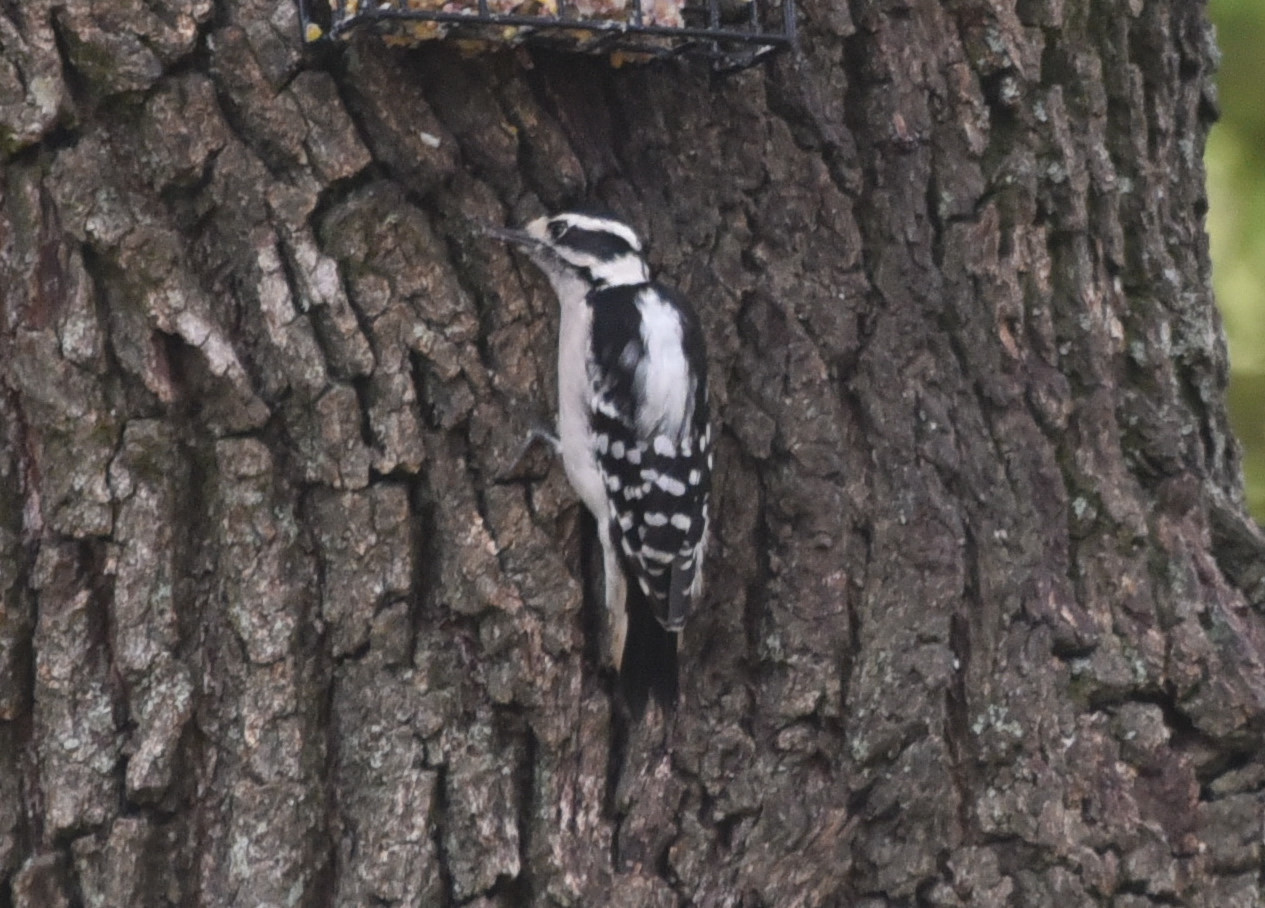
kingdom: Animalia
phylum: Chordata
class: Aves
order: Piciformes
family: Picidae
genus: Dryobates
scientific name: Dryobates pubescens
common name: Downy woodpecker
